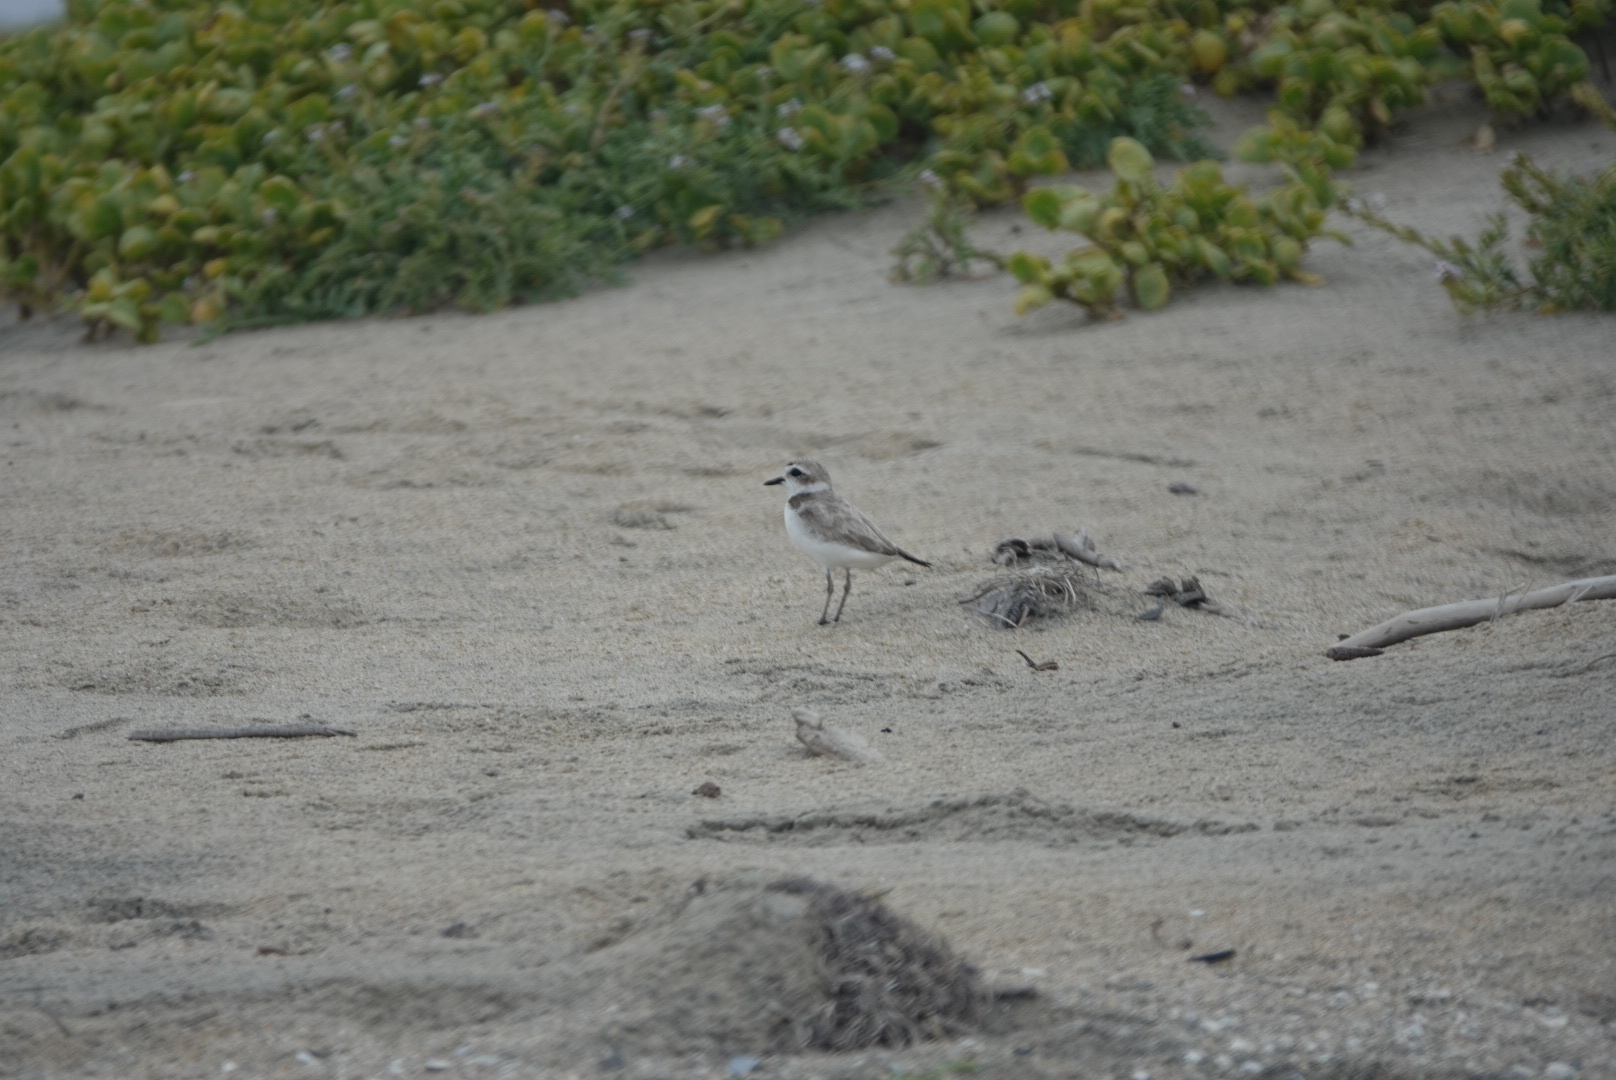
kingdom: Animalia
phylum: Chordata
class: Aves
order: Charadriiformes
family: Charadriidae
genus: Anarhynchus
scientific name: Anarhynchus
